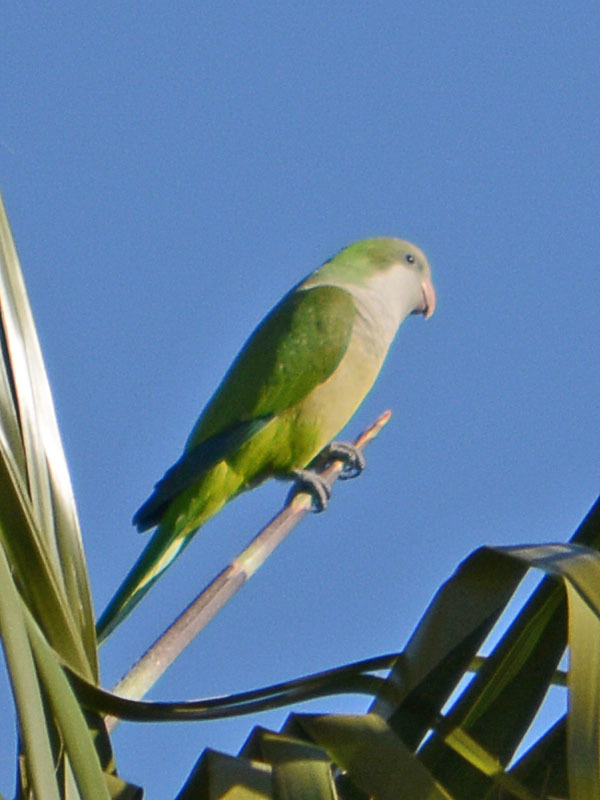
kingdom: Animalia
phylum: Chordata
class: Aves
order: Psittaciformes
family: Psittacidae
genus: Myiopsitta
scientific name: Myiopsitta monachus
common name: Monk parakeet
